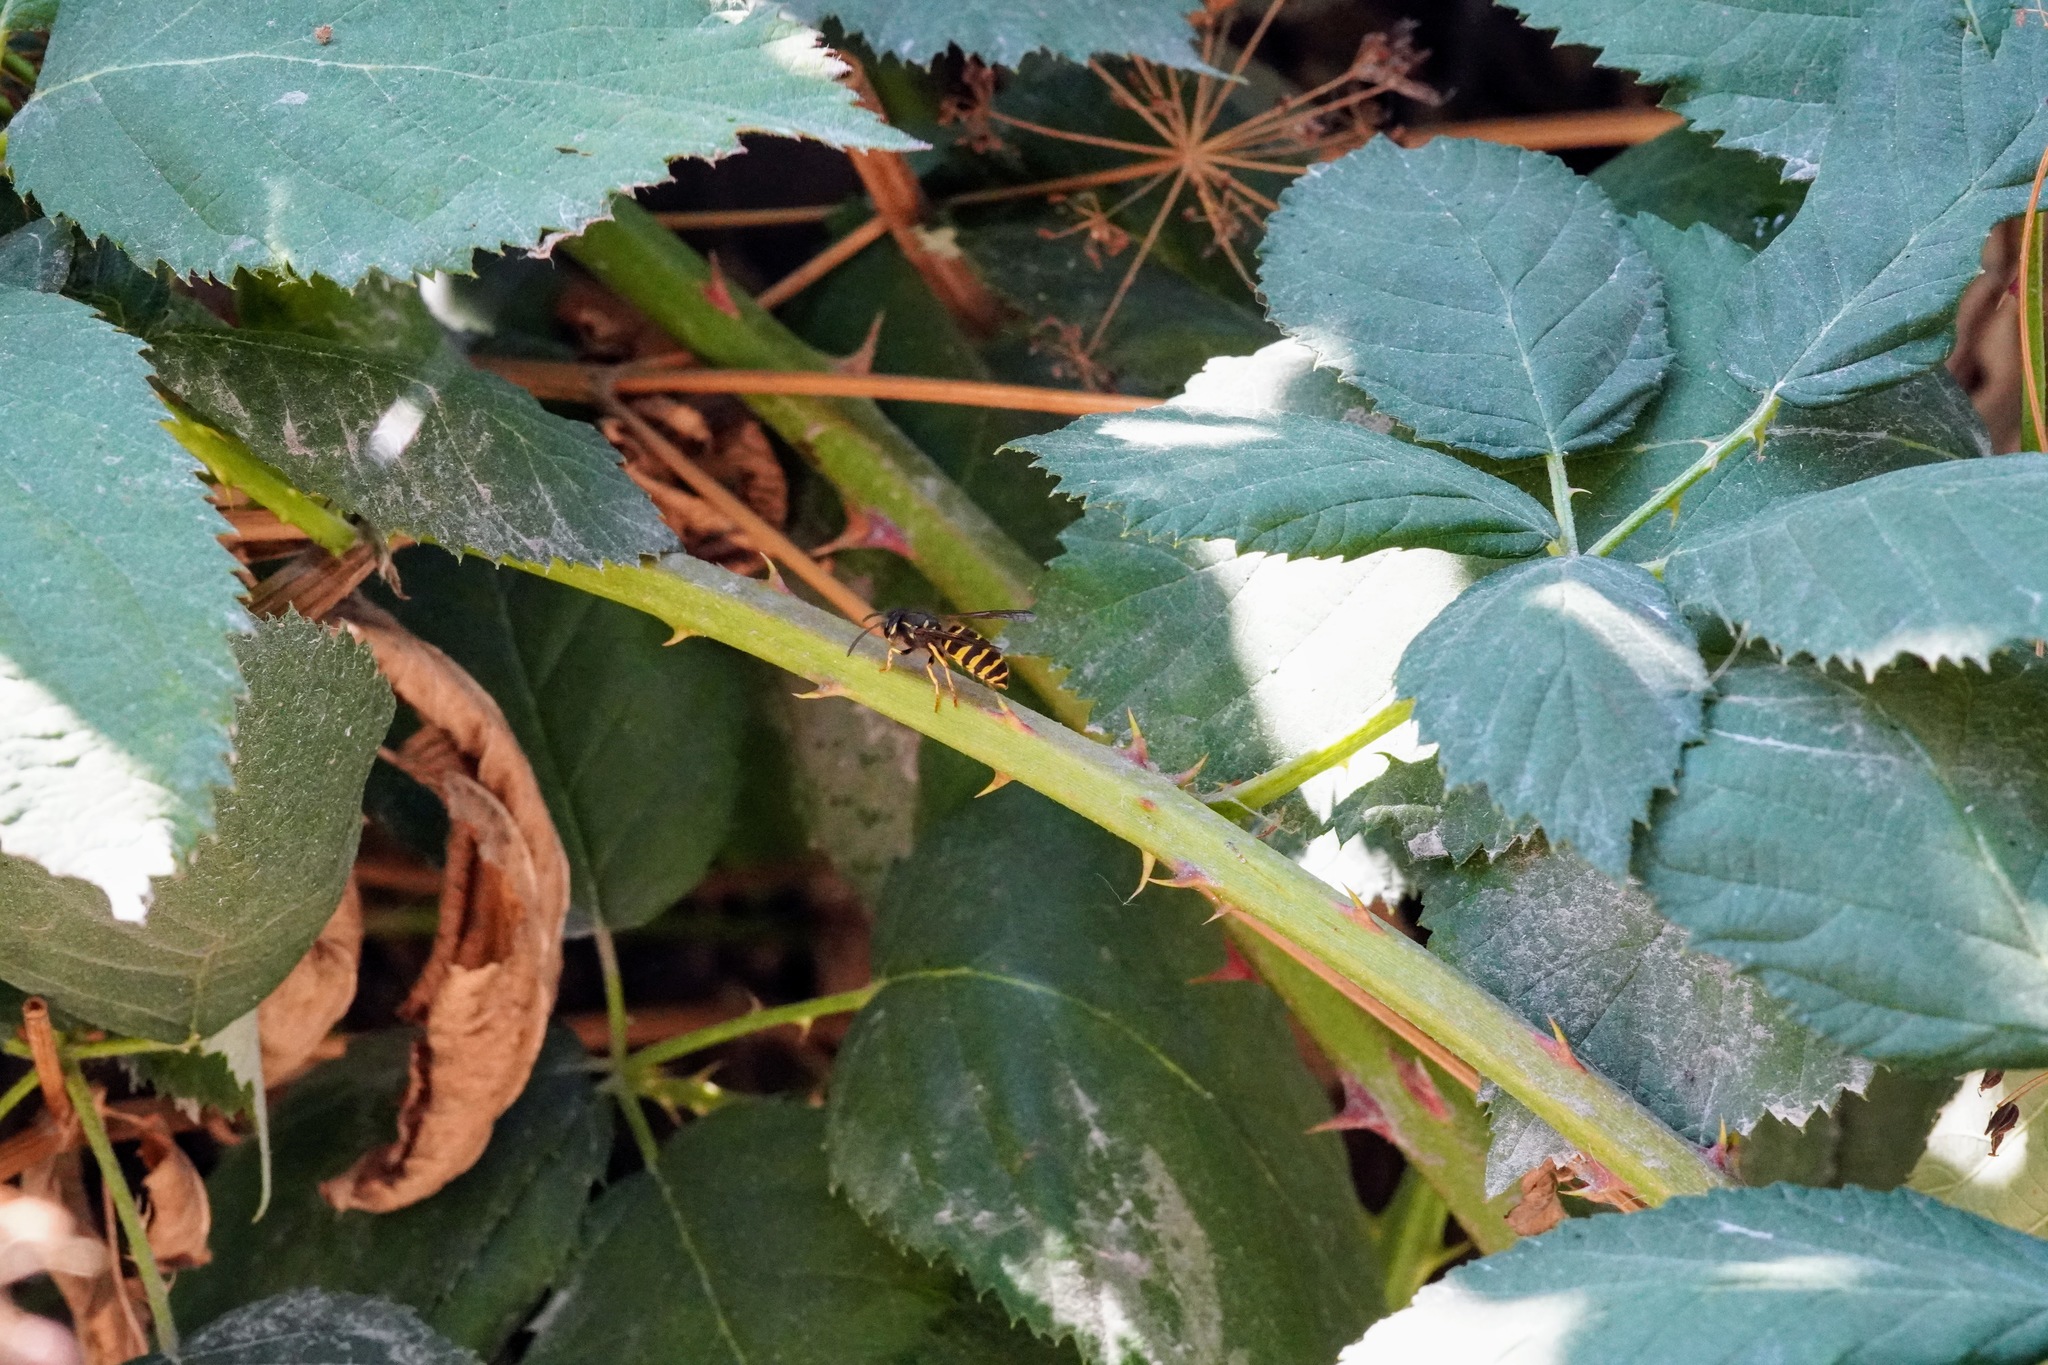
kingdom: Animalia
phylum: Arthropoda
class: Insecta
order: Hymenoptera
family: Vespidae
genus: Vespula
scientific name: Vespula alascensis
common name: Alaska yellowjacket
